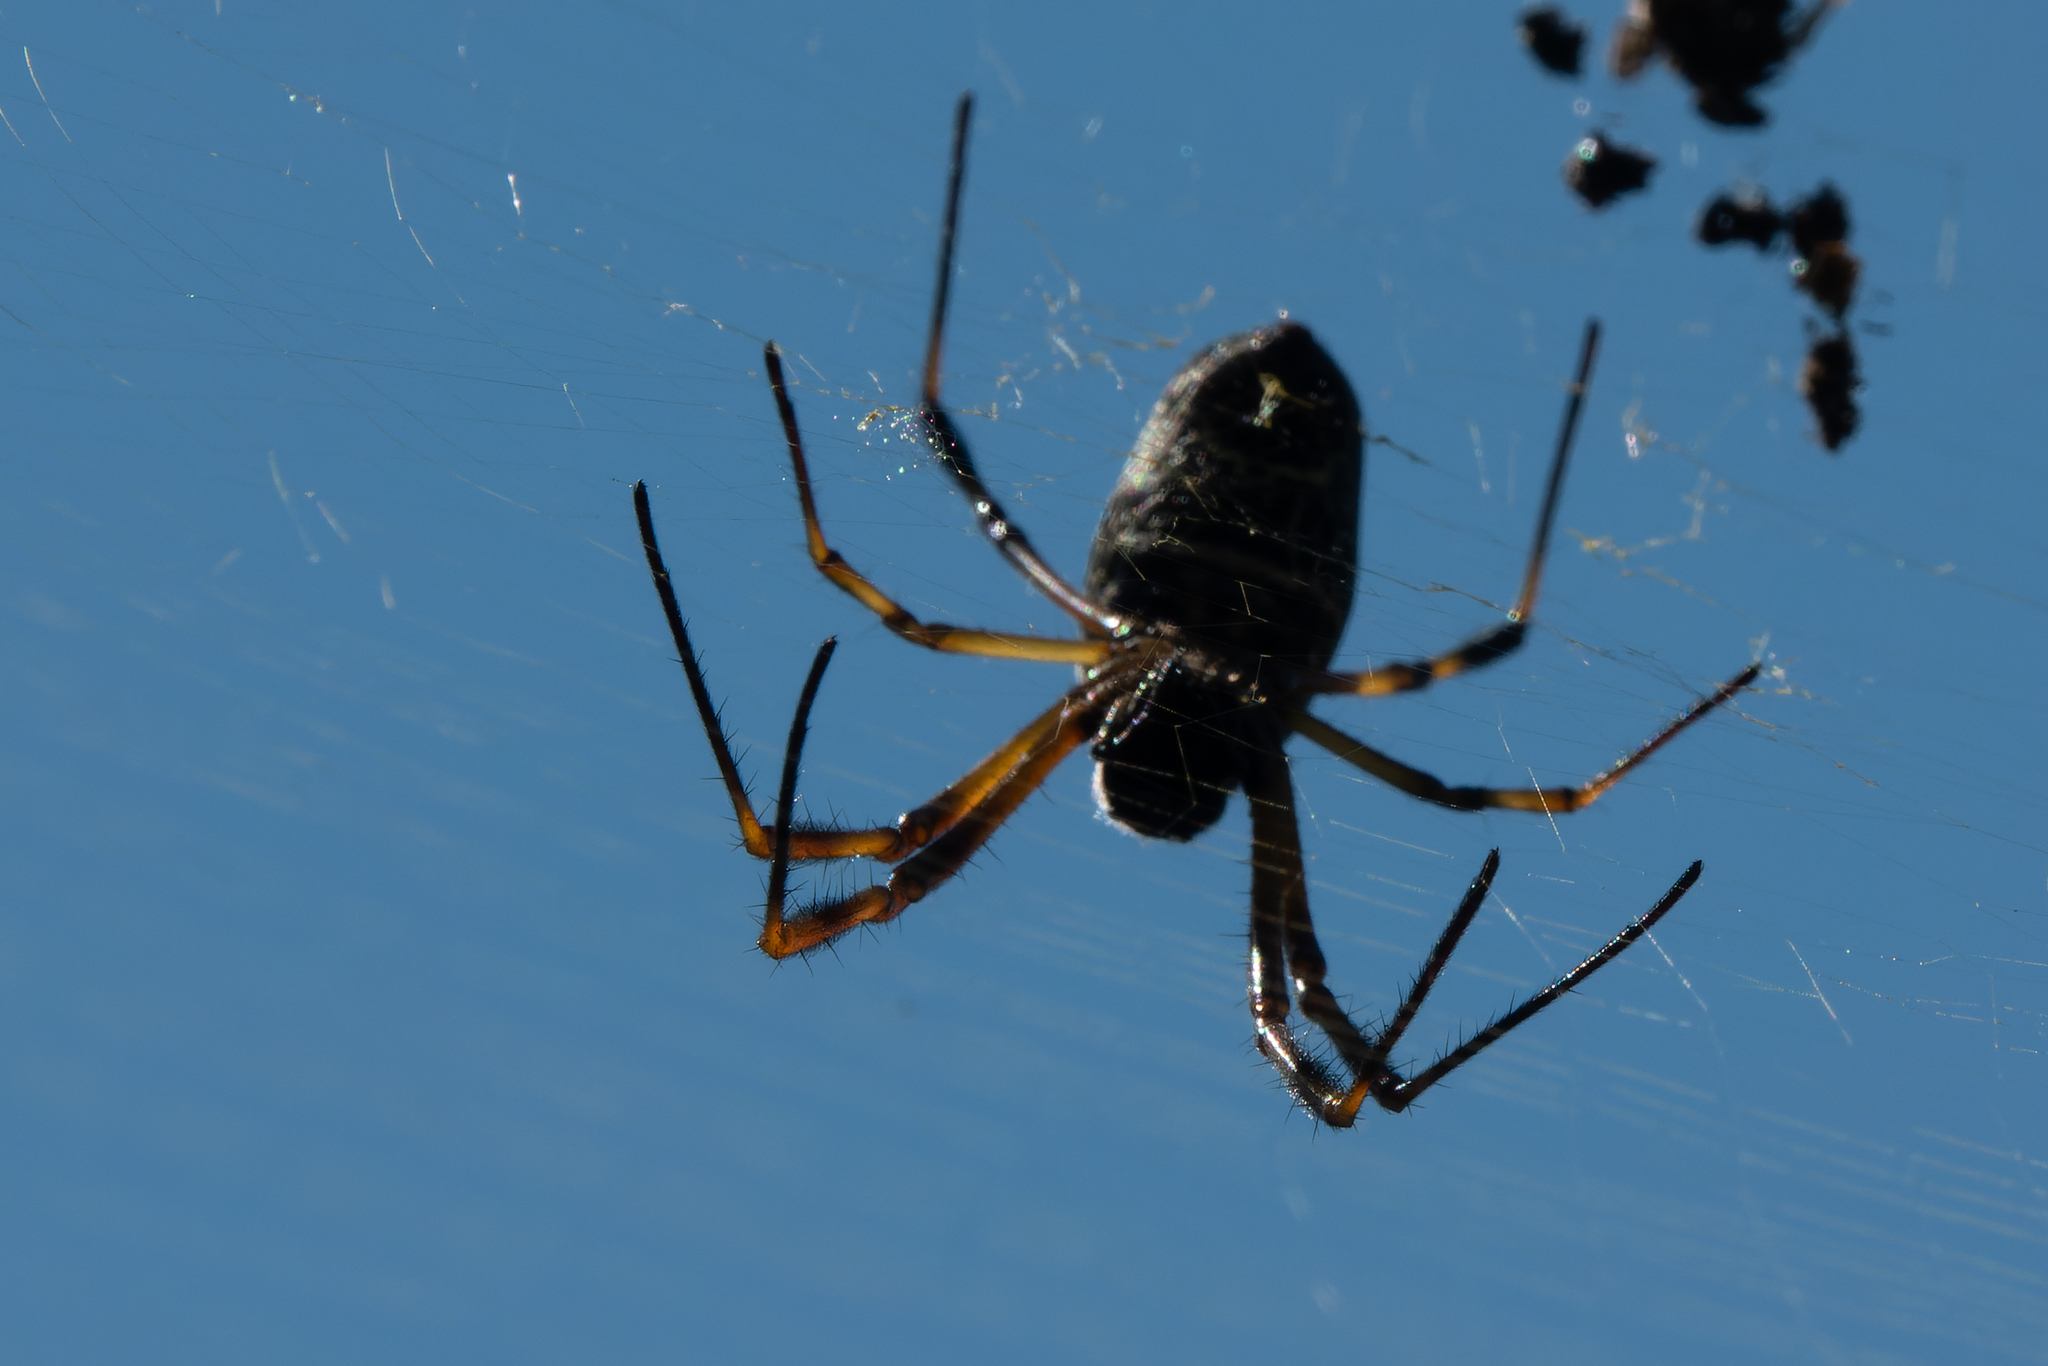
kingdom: Animalia
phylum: Arthropoda
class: Arachnida
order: Araneae
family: Araneidae
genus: Trichonephila
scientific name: Trichonephila sexpunctata
